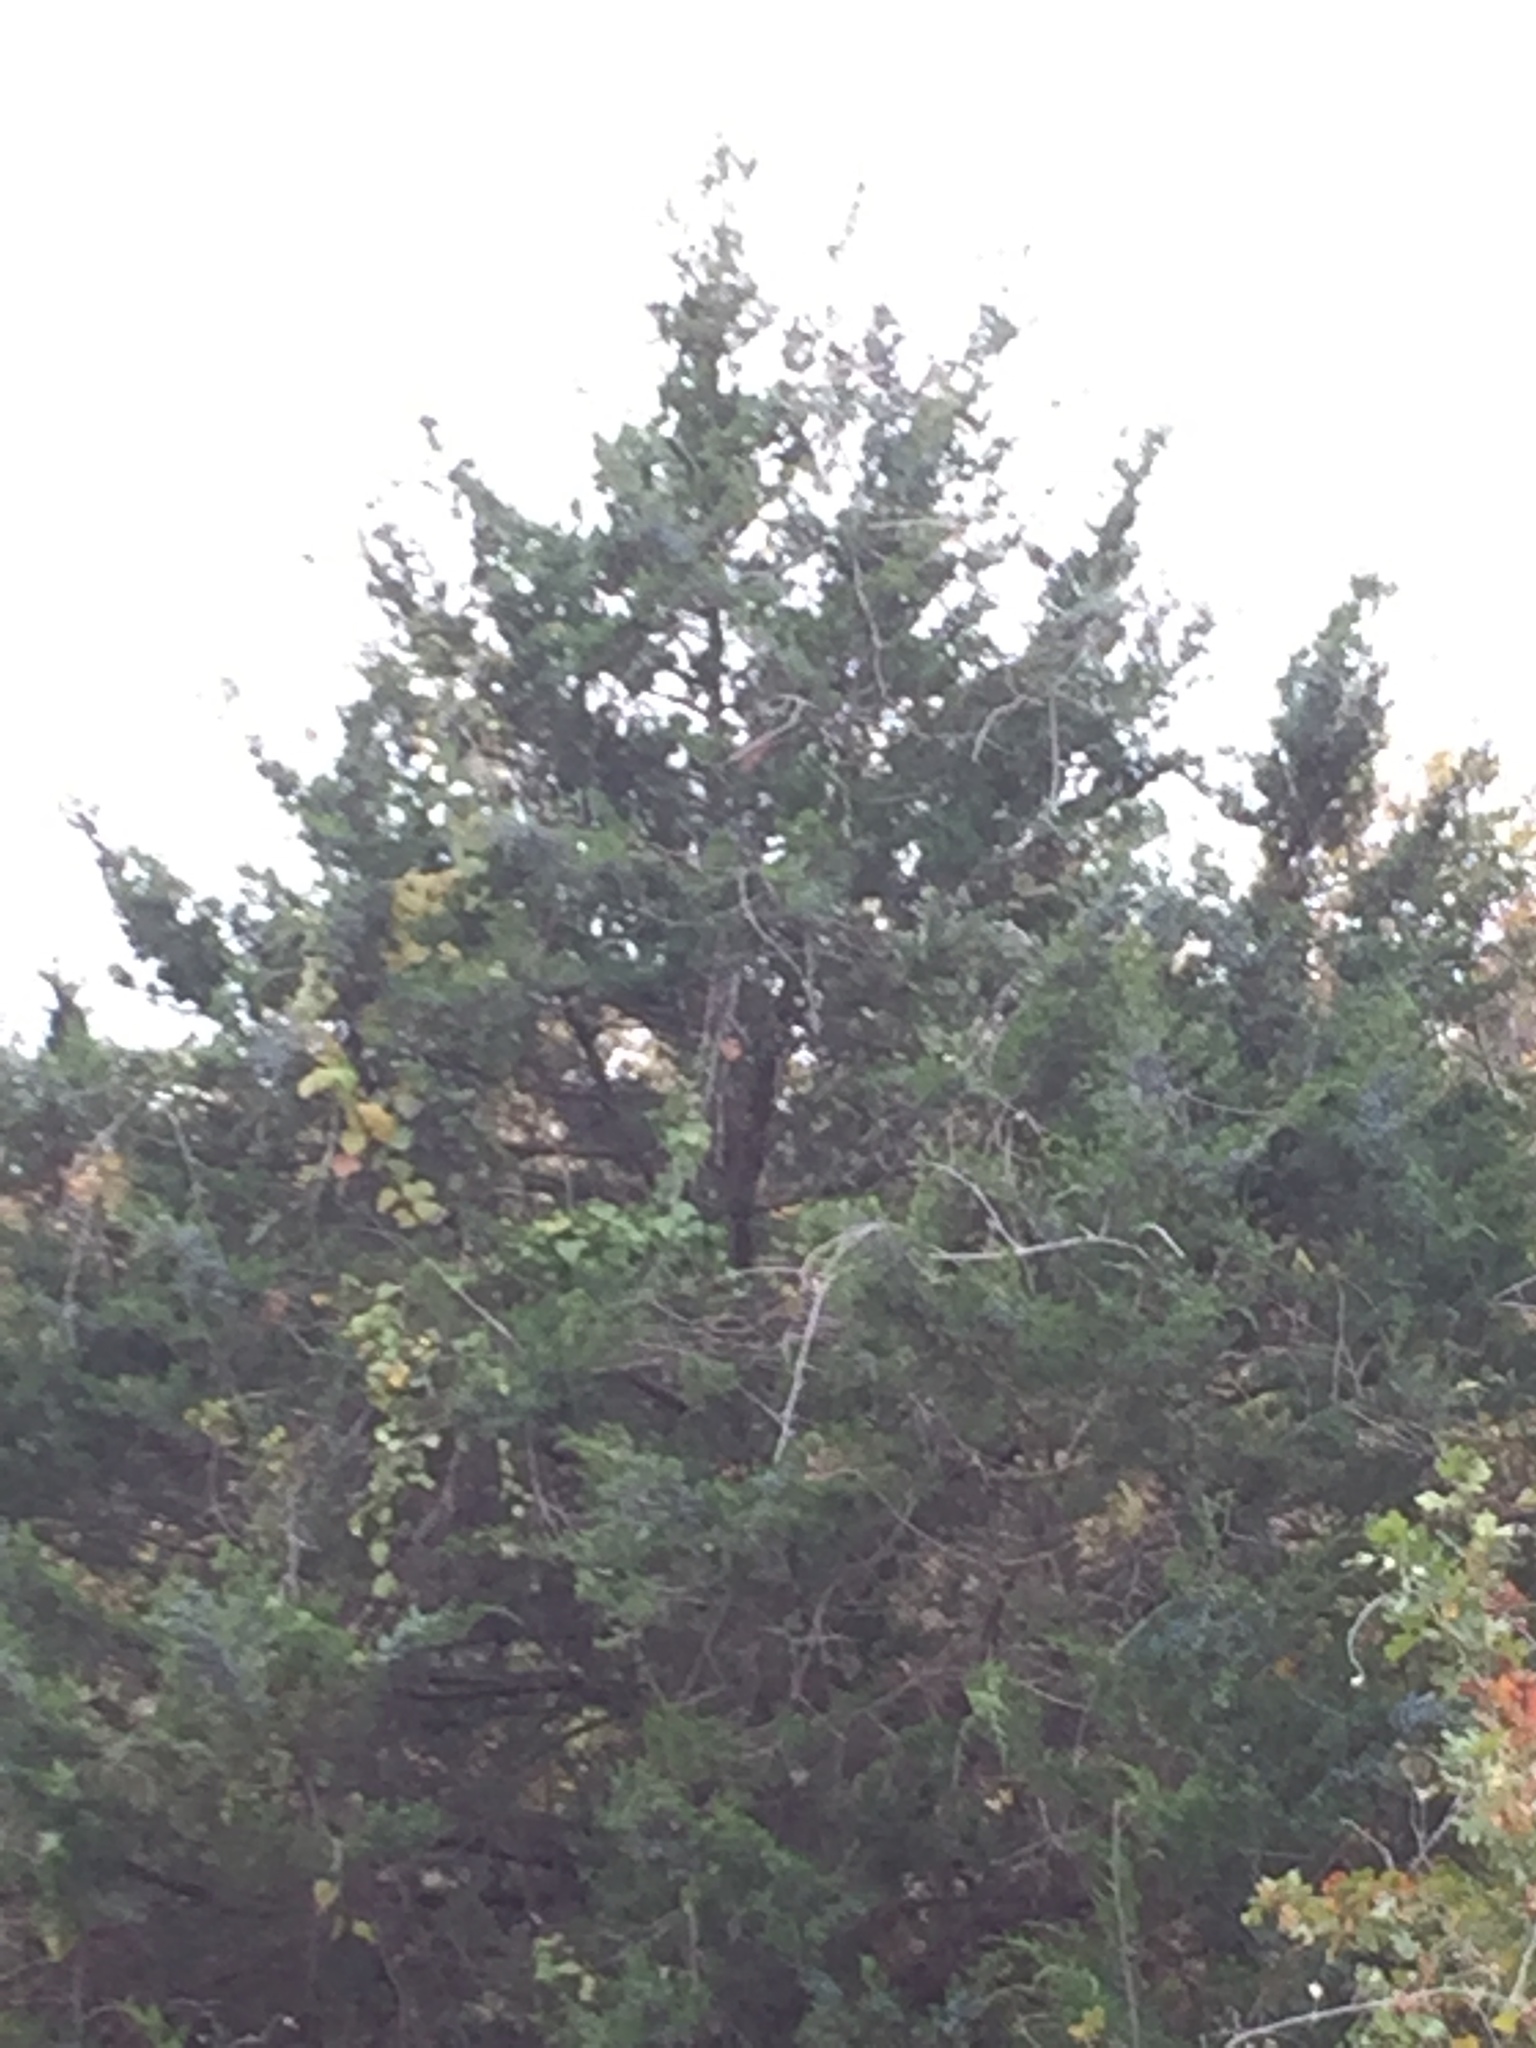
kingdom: Plantae
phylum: Tracheophyta
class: Pinopsida
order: Pinales
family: Cupressaceae
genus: Juniperus
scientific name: Juniperus virginiana
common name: Red juniper
